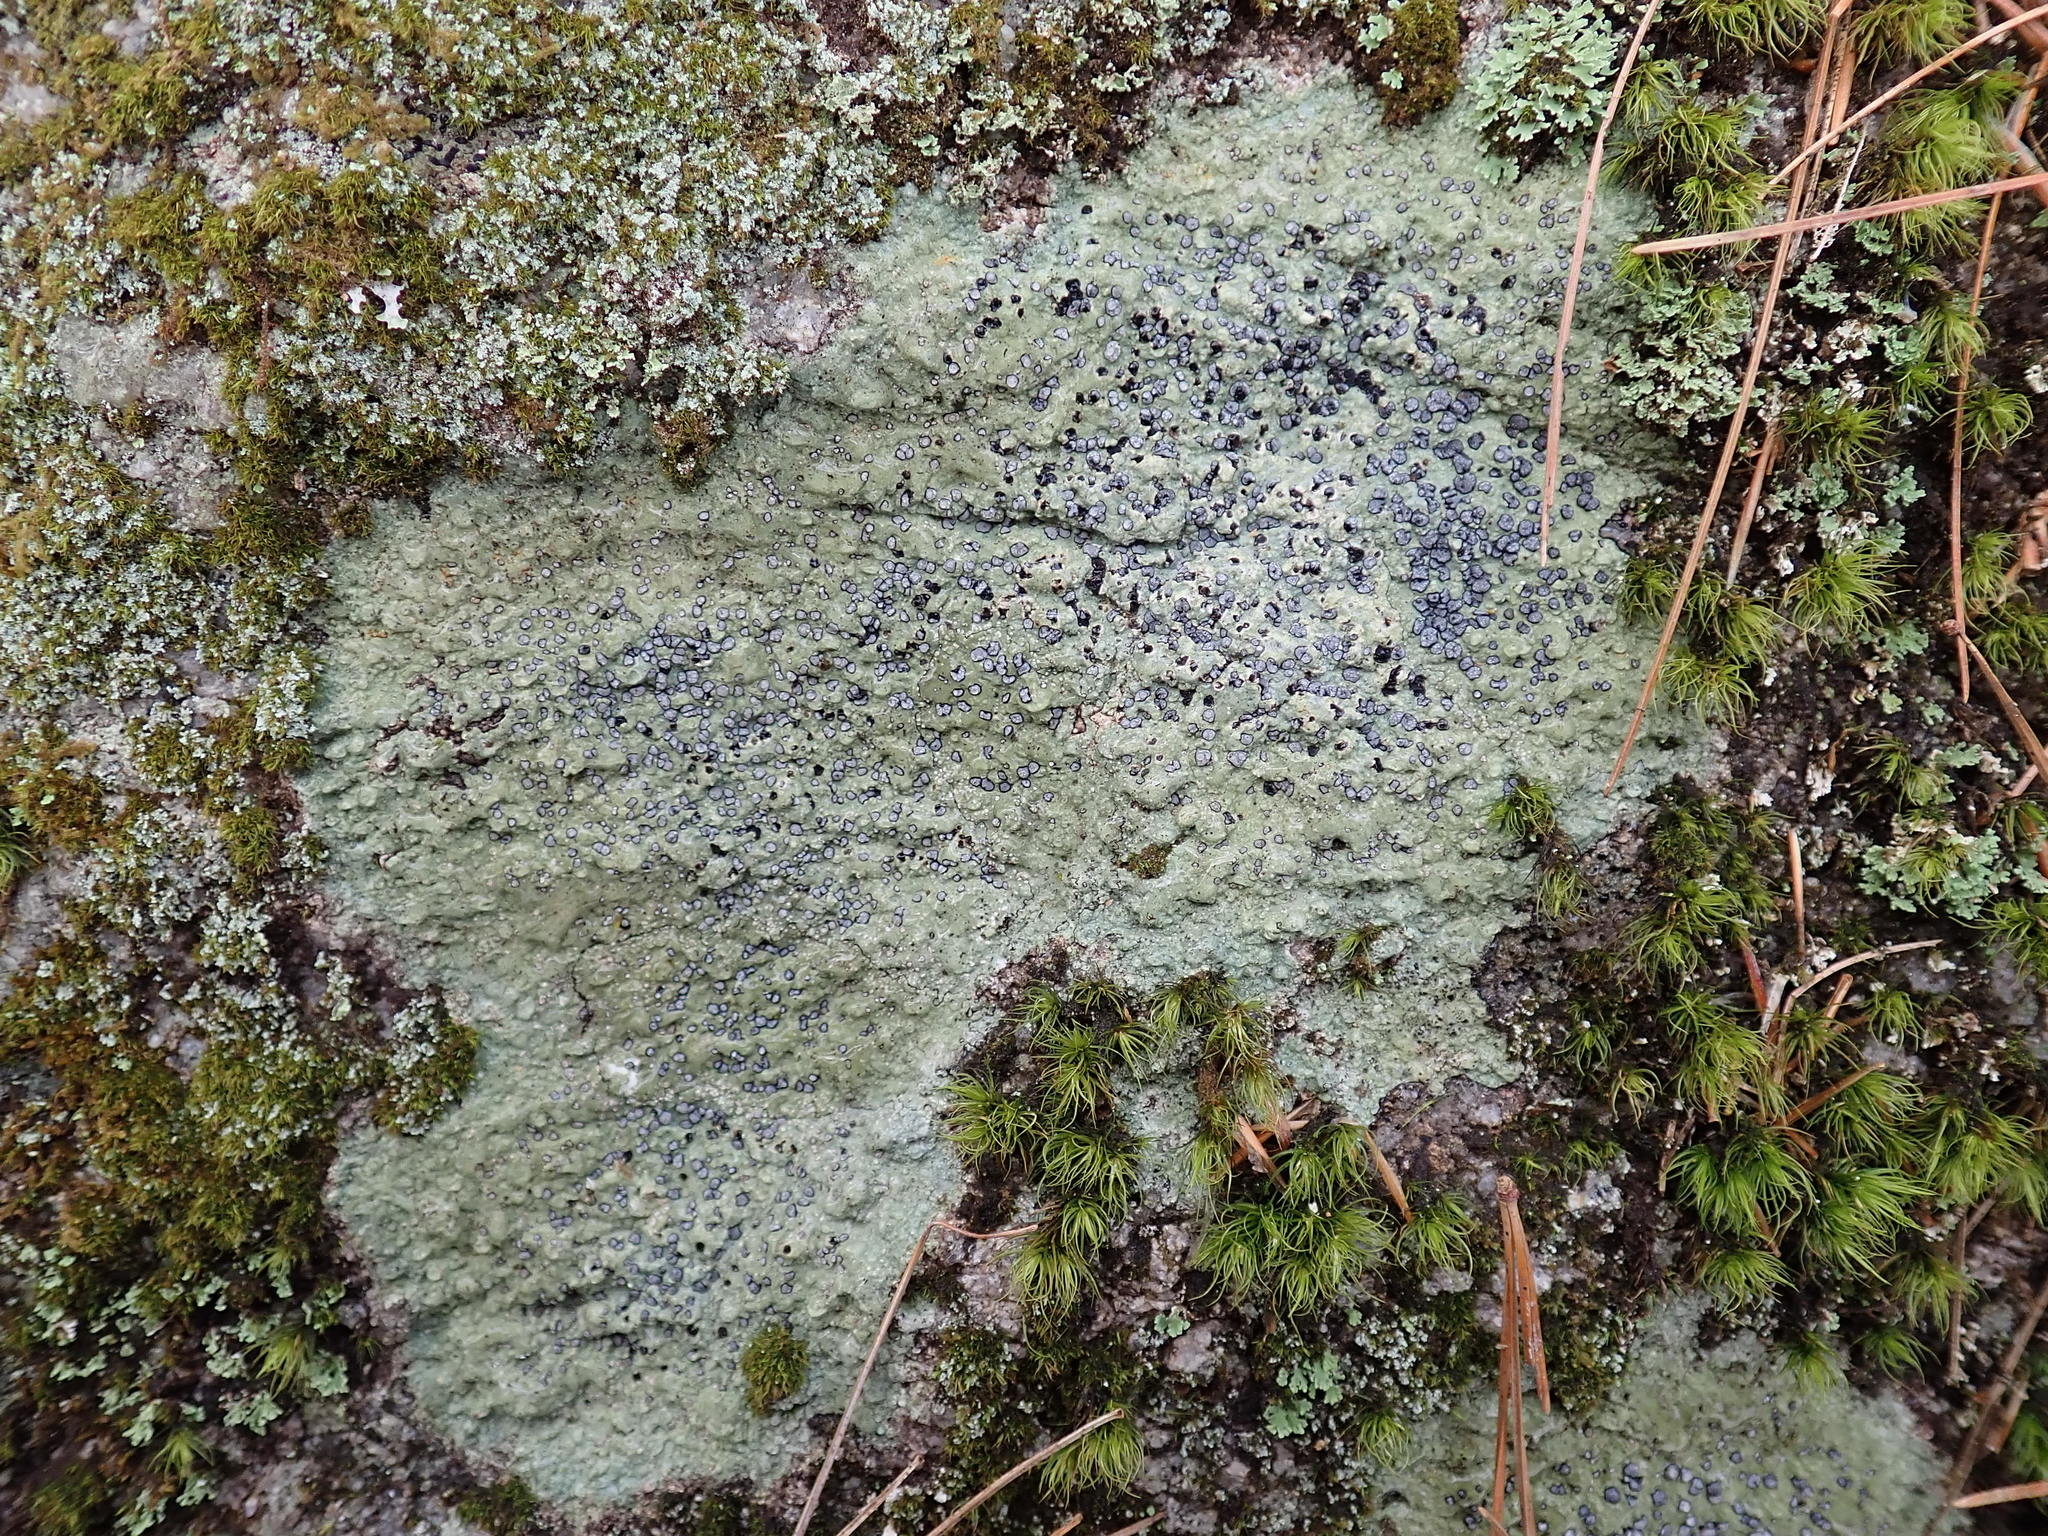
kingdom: Fungi
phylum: Ascomycota
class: Lecanoromycetes
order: Lecideales
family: Lecideaceae
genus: Porpidia
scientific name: Porpidia albocaerulescens
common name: Smokey-eyed boulder lichen
